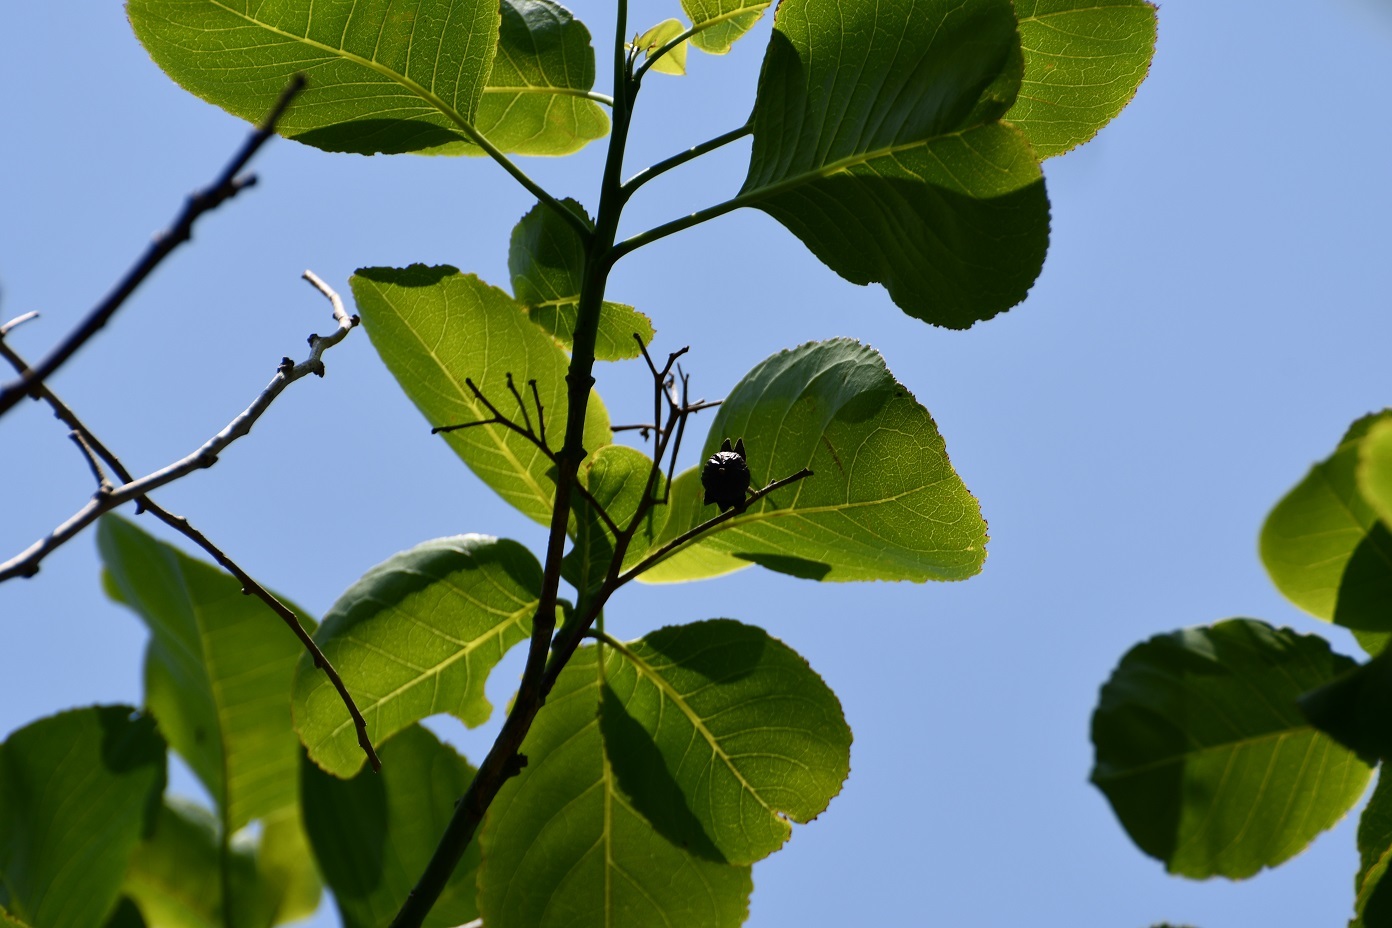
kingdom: Plantae
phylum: Tracheophyta
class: Magnoliopsida
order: Boraginales
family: Ehretiaceae
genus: Bourreria
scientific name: Bourreria huanita
